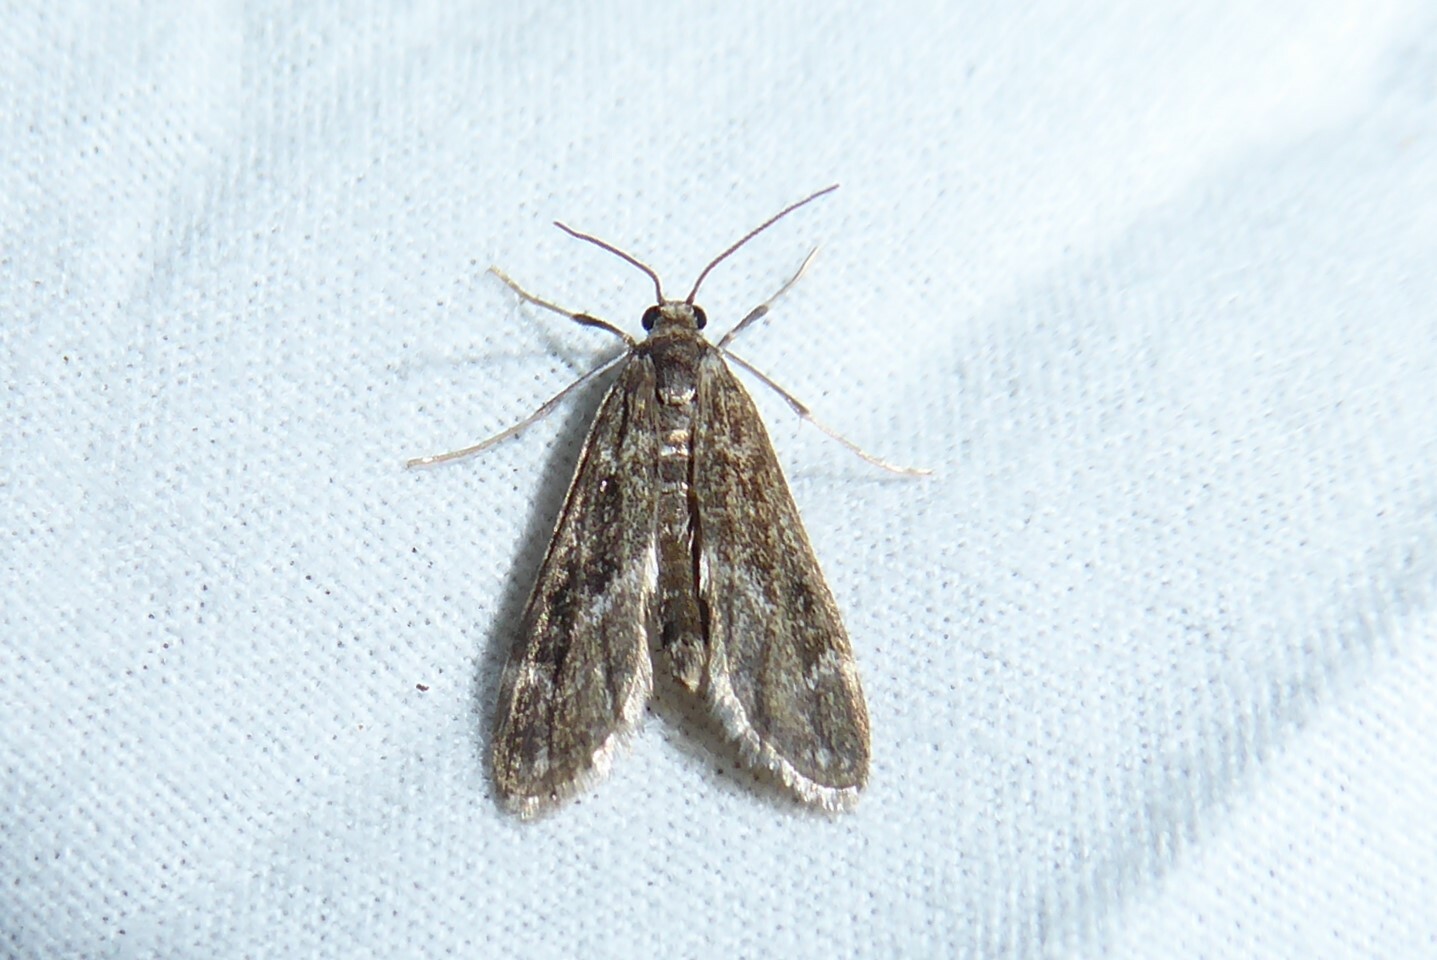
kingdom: Animalia
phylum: Arthropoda
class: Insecta
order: Lepidoptera
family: Crambidae
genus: Hygraula
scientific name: Hygraula nitens
